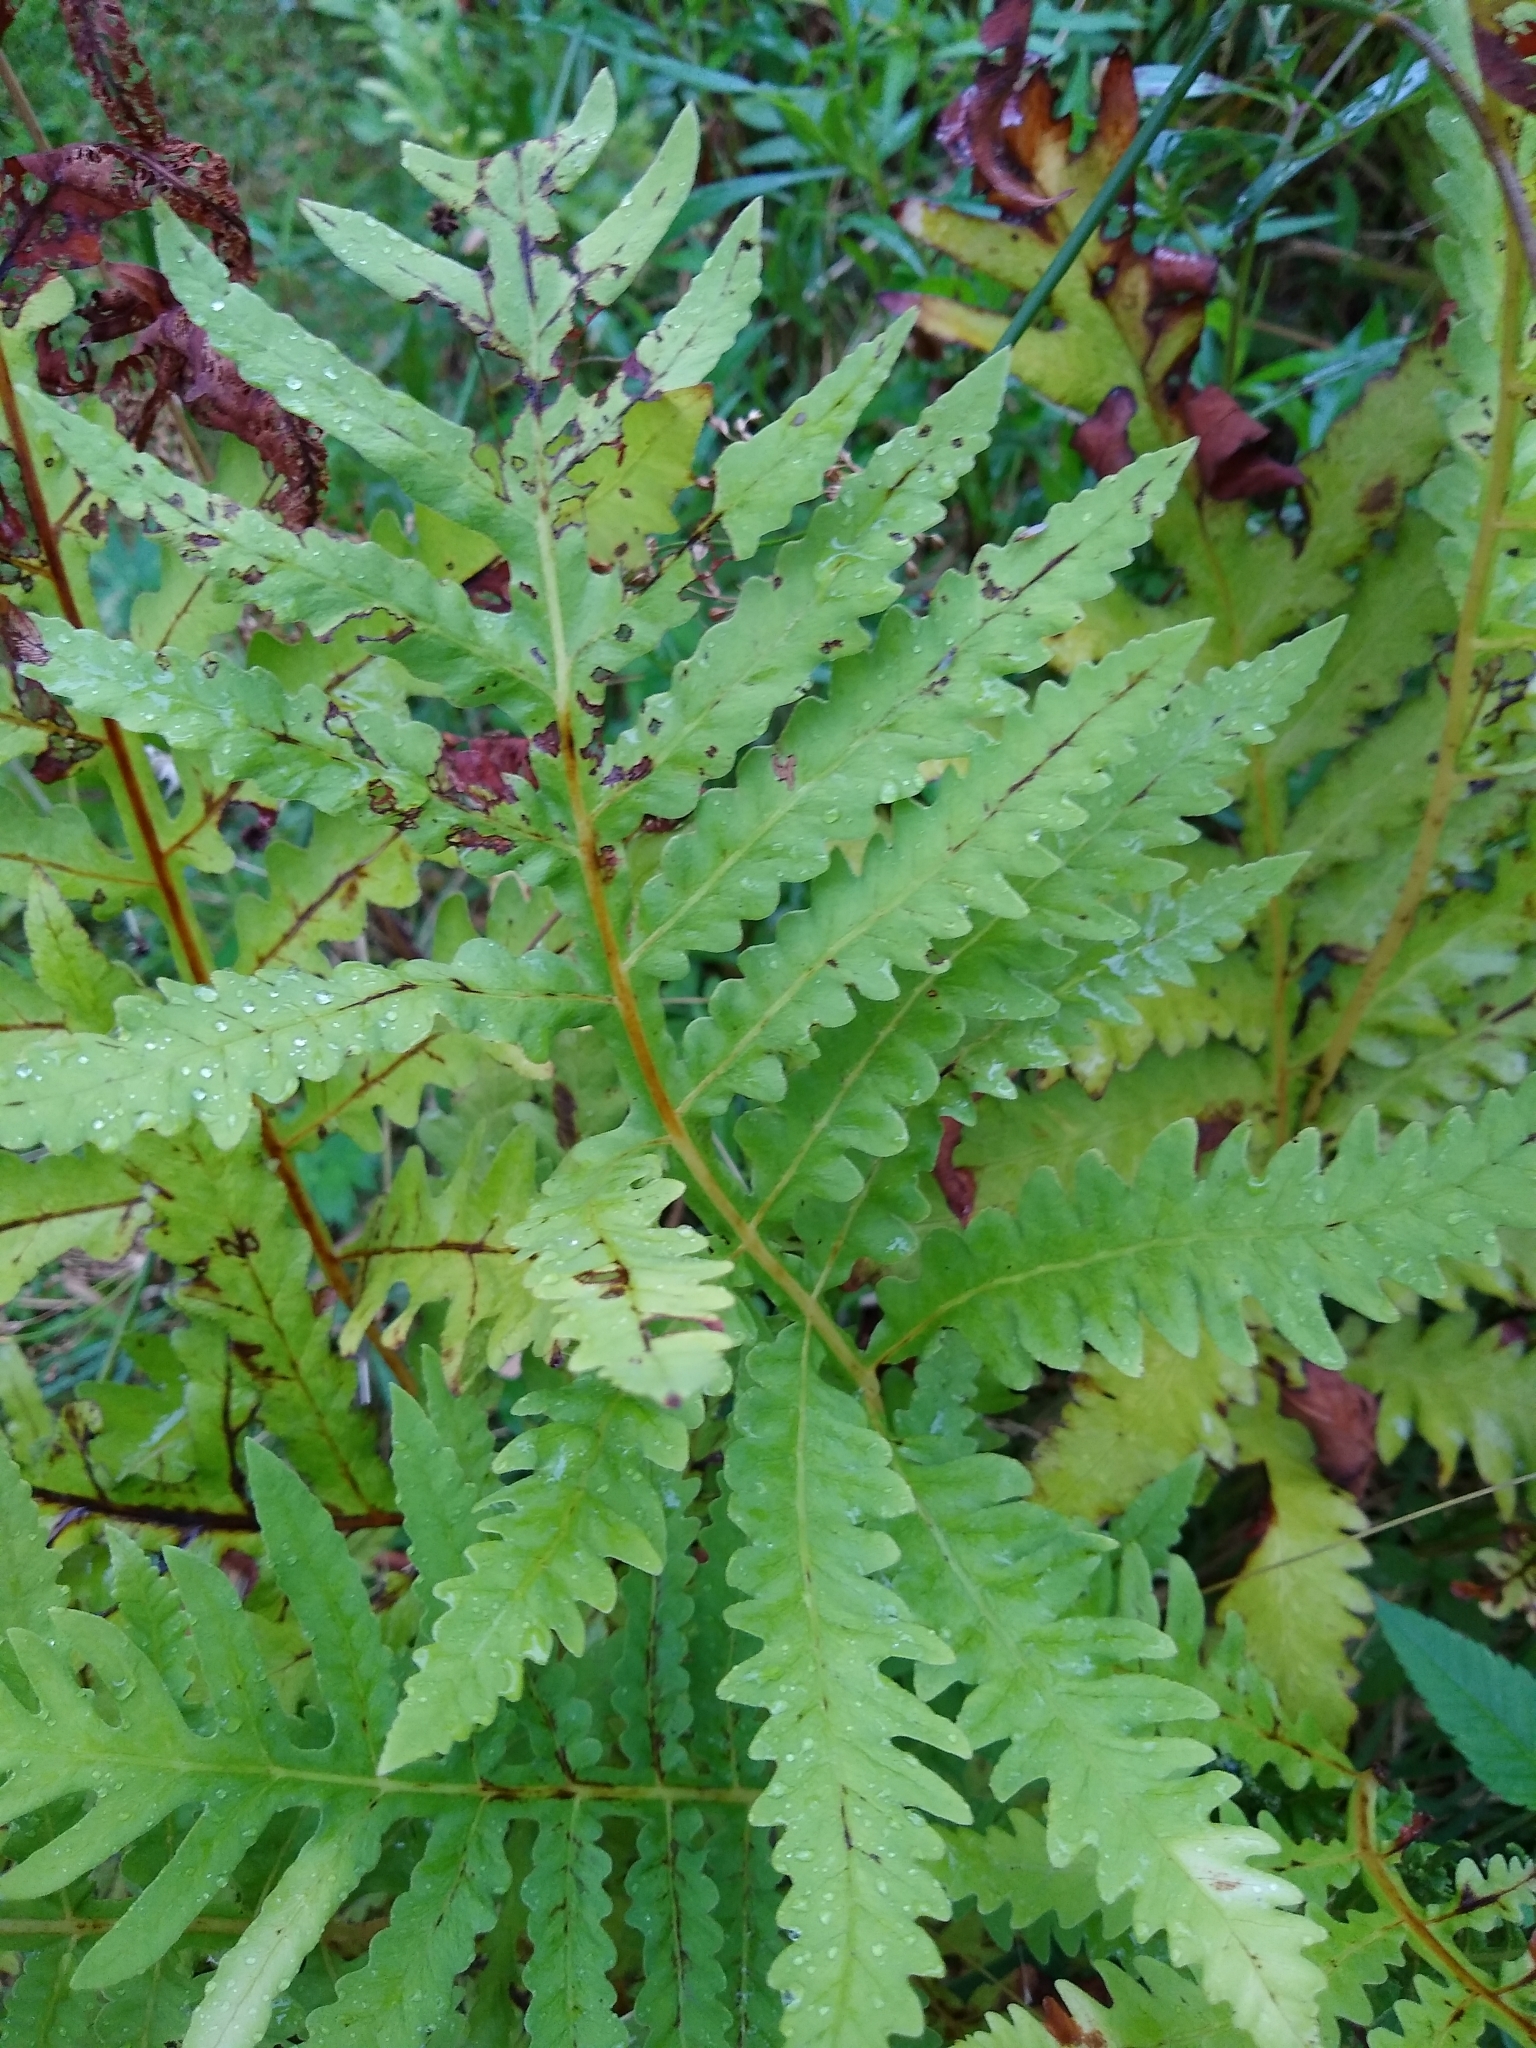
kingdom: Plantae
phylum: Tracheophyta
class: Polypodiopsida
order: Polypodiales
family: Onocleaceae
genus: Onoclea
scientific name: Onoclea sensibilis
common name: Sensitive fern
